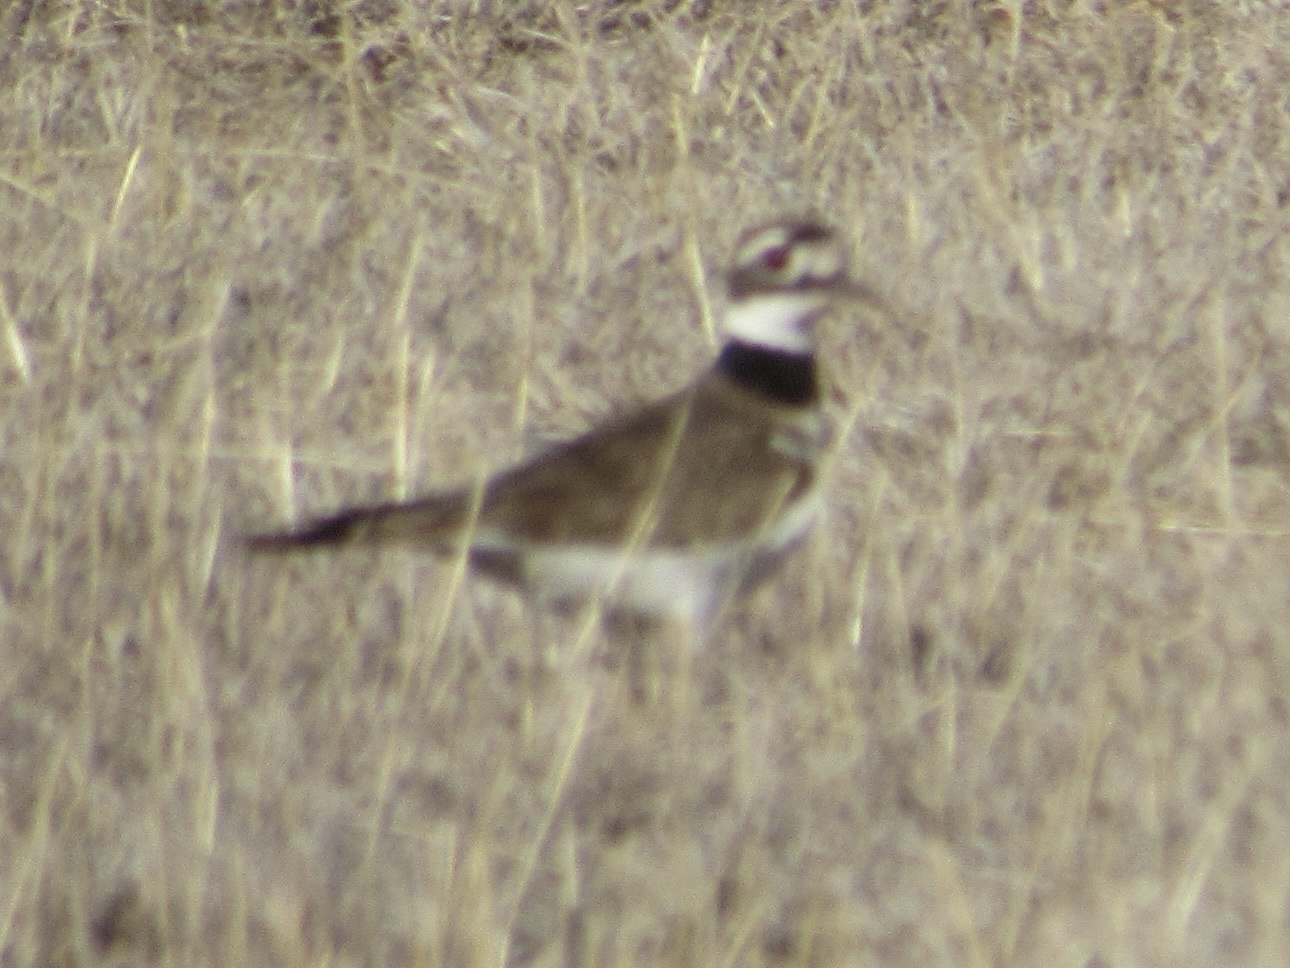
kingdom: Animalia
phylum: Chordata
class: Aves
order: Charadriiformes
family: Charadriidae
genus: Charadrius
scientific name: Charadrius vociferus
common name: Killdeer
